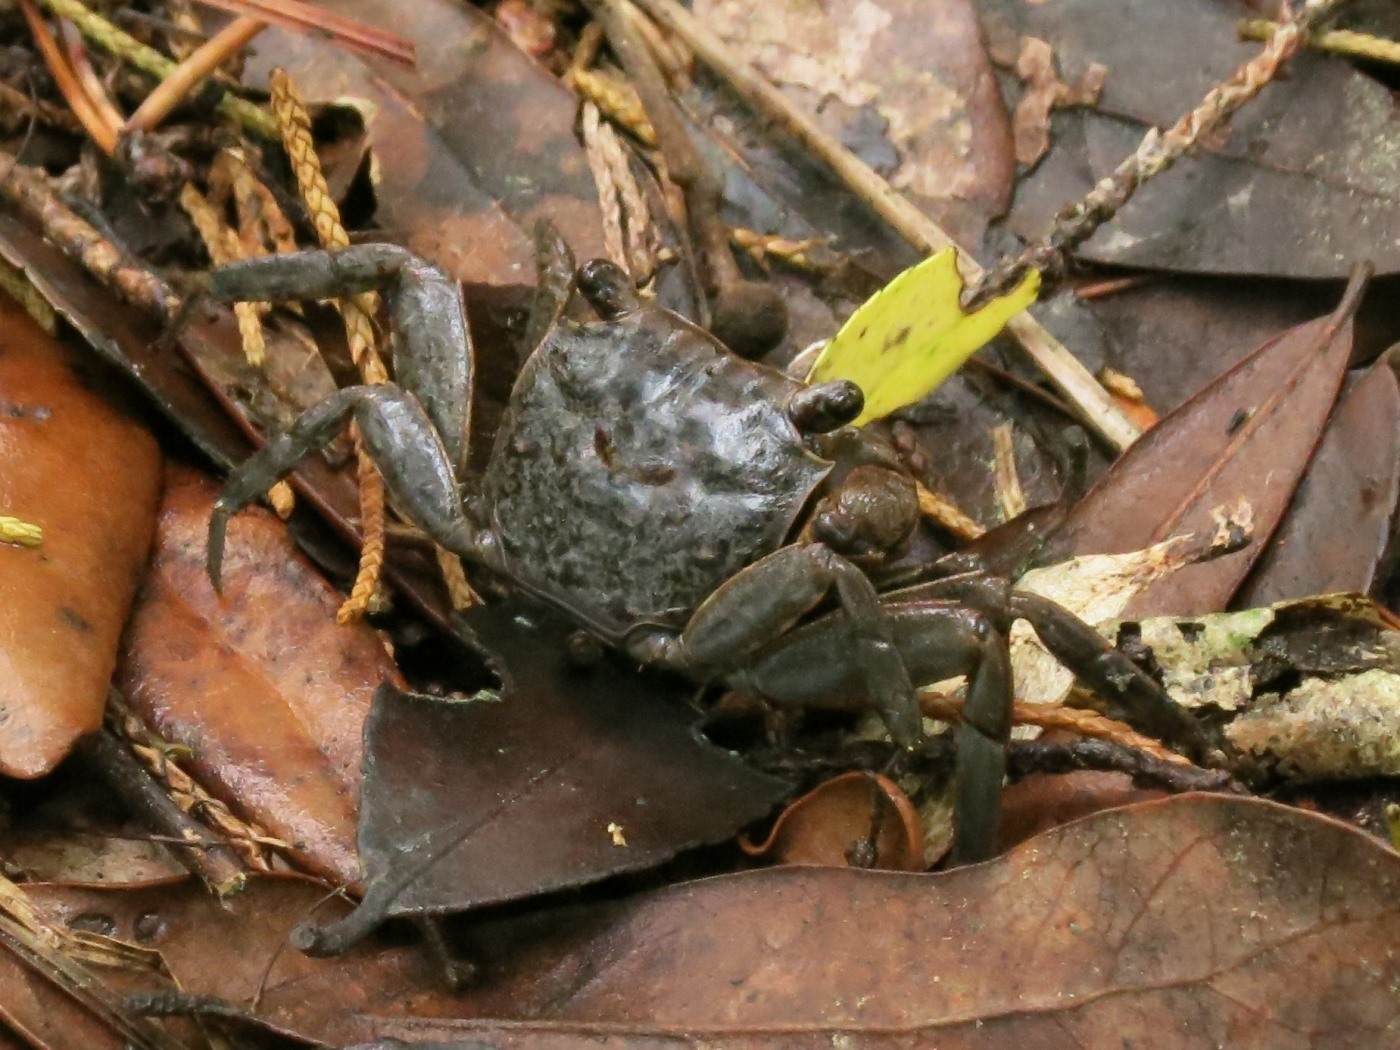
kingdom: Animalia
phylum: Arthropoda
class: Malacostraca
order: Decapoda
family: Sesarmidae
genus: Armases
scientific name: Armases cinereum
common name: Squareback marsh crab
